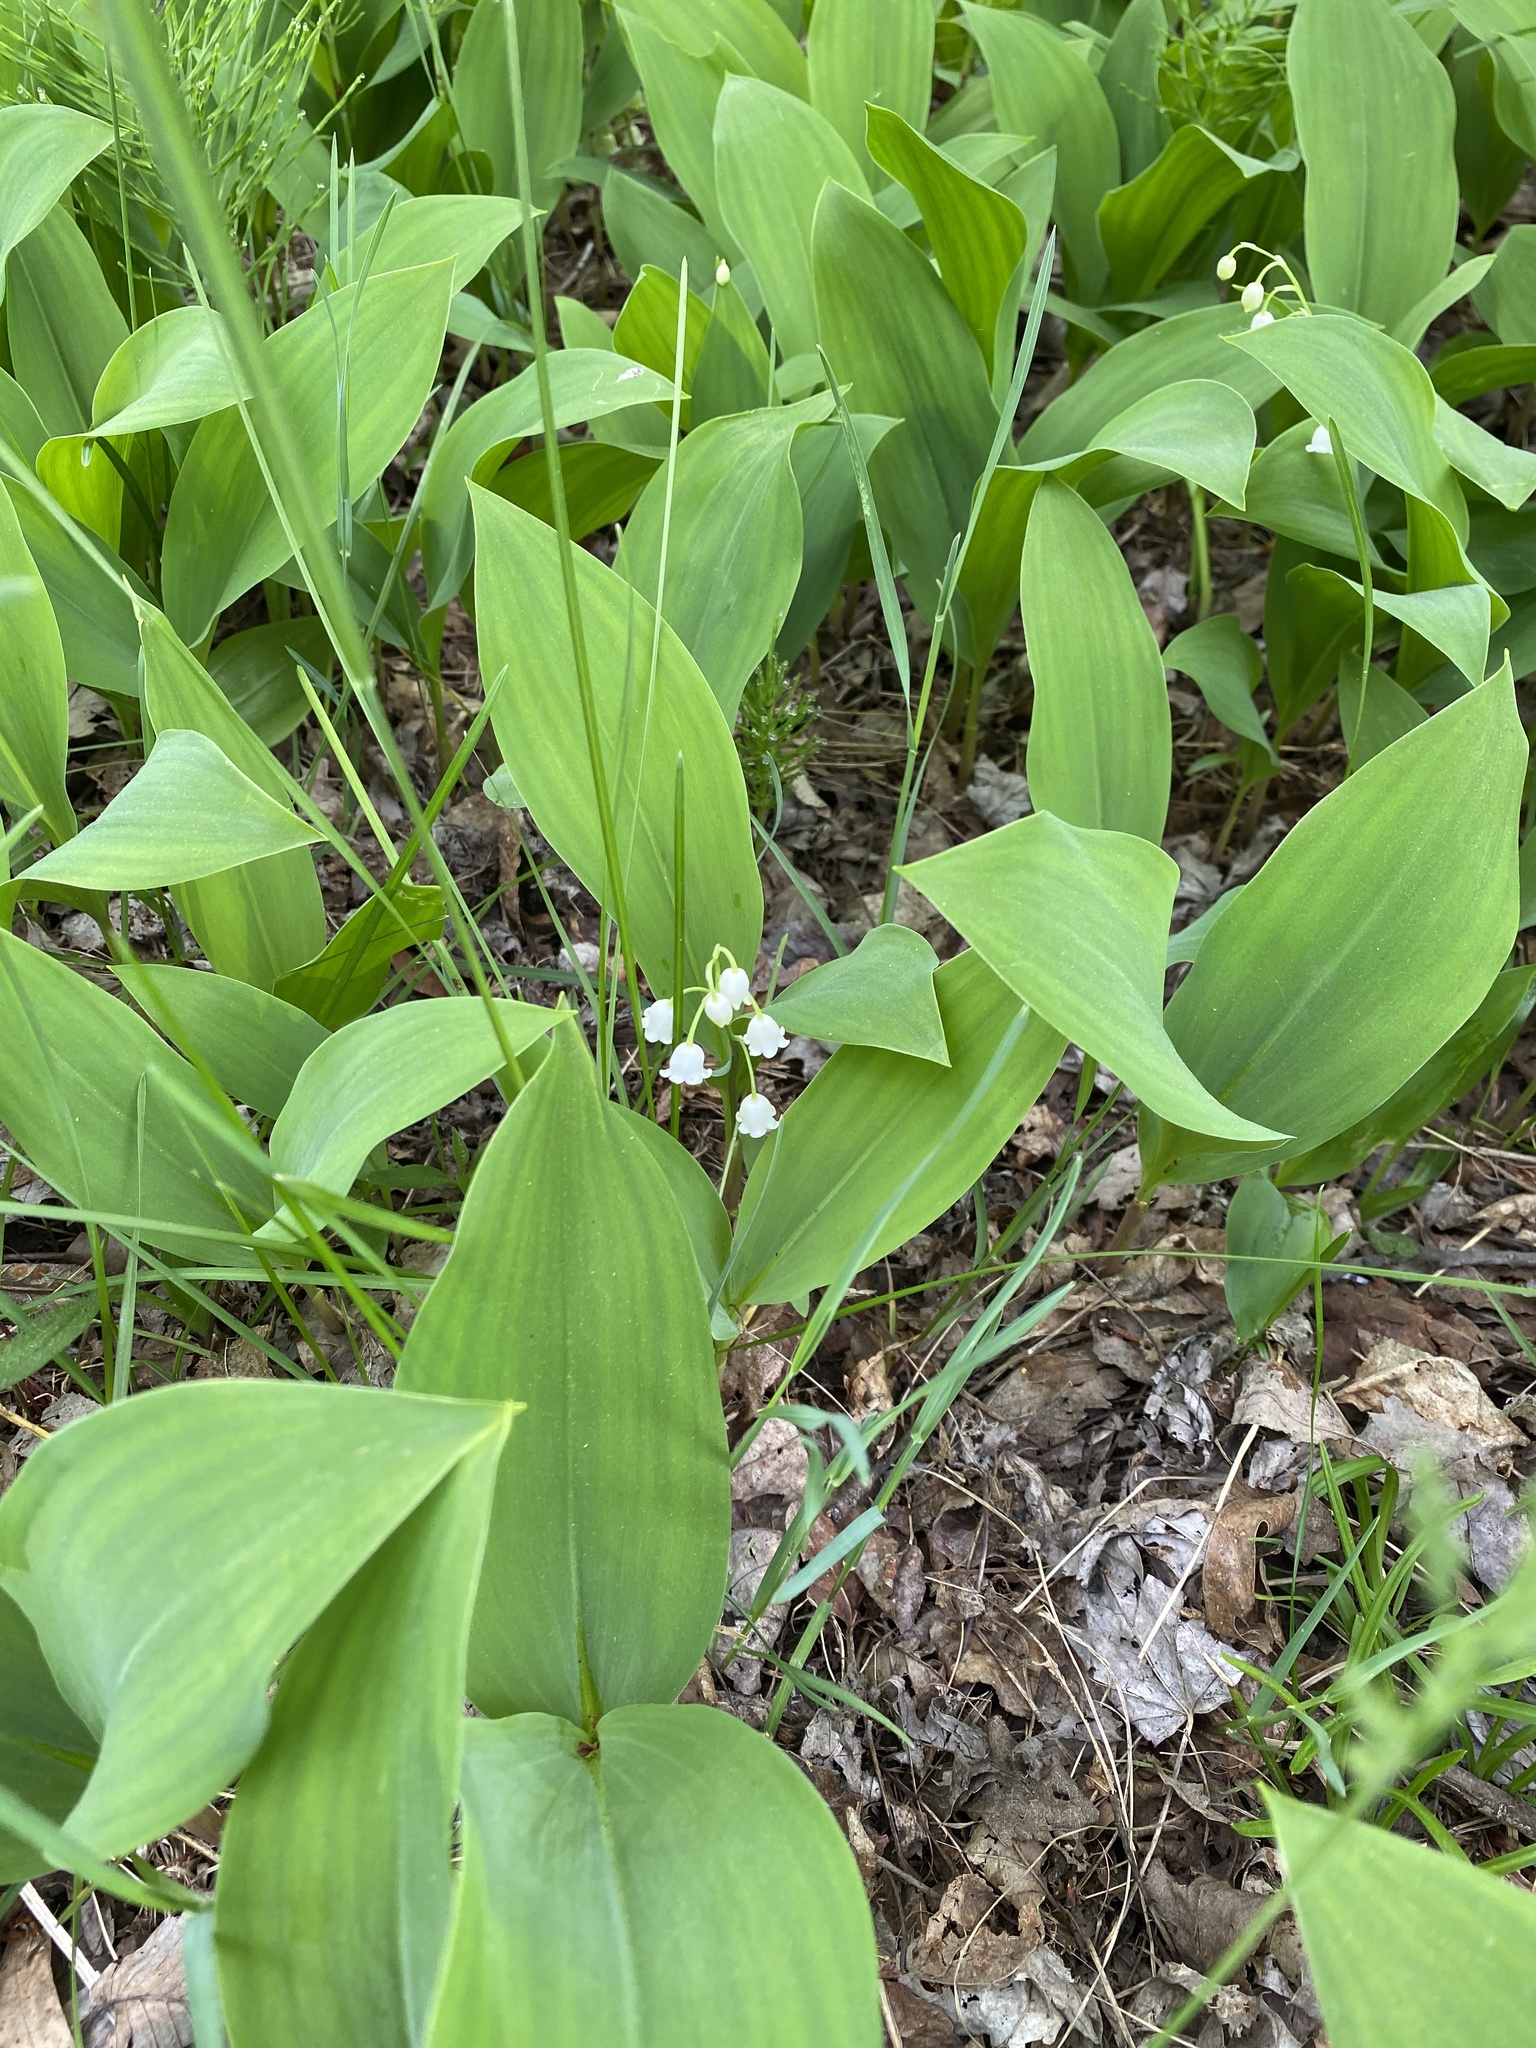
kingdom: Plantae
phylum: Tracheophyta
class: Liliopsida
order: Asparagales
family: Asparagaceae
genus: Convallaria
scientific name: Convallaria majalis
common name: Lily-of-the-valley
